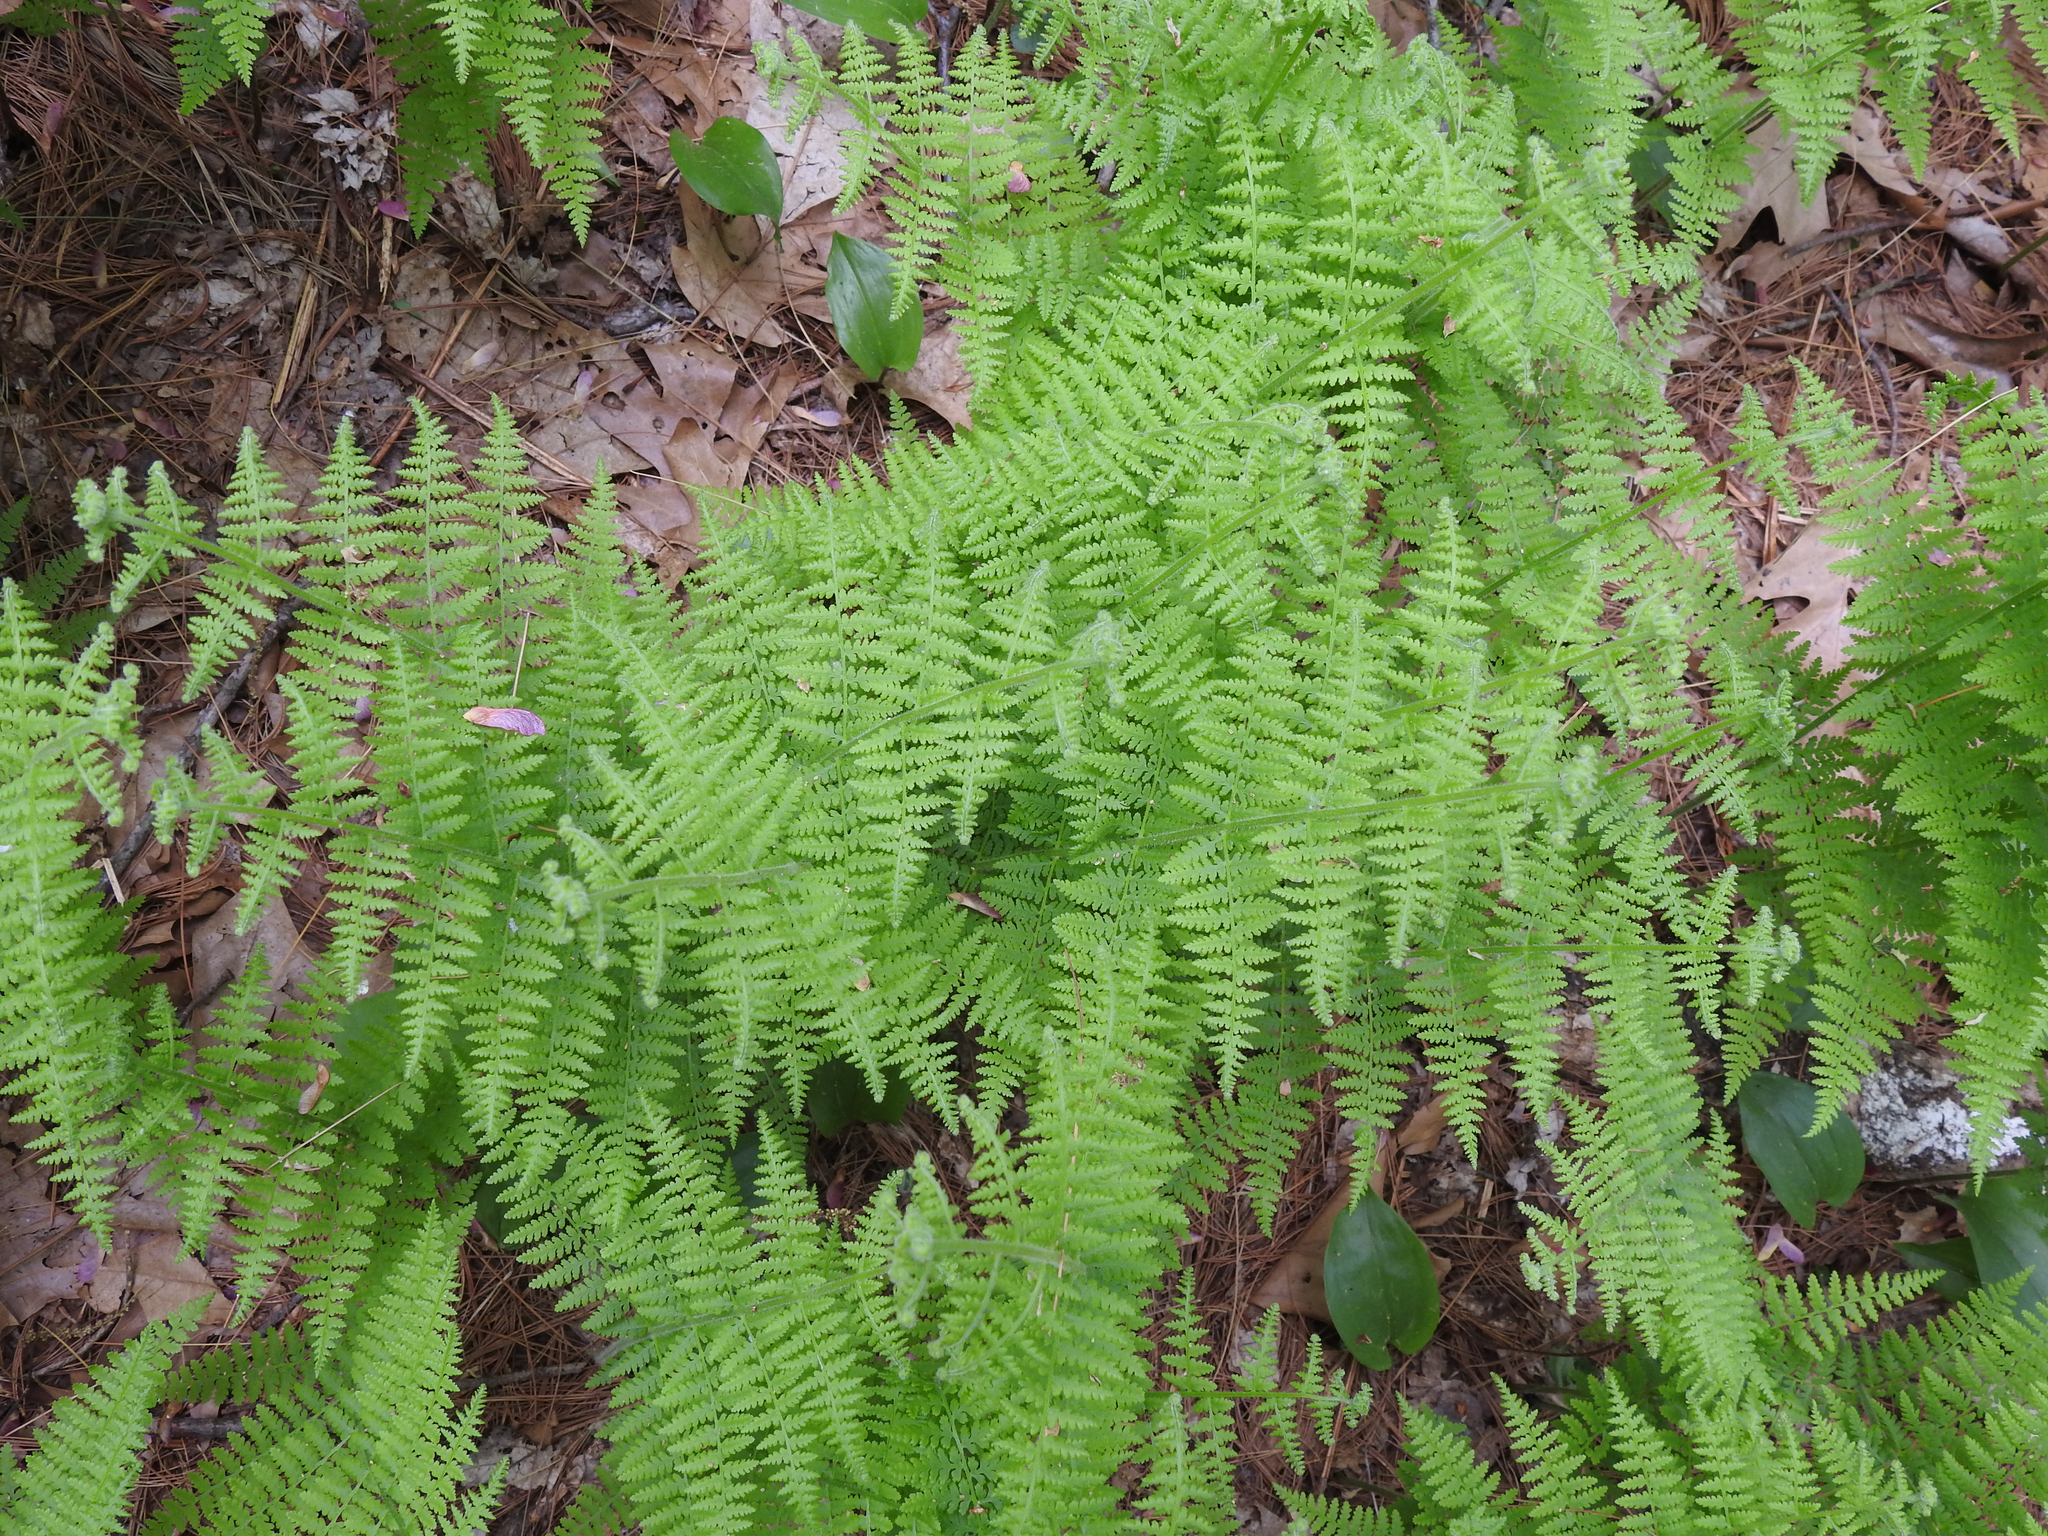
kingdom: Plantae
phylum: Tracheophyta
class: Polypodiopsida
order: Polypodiales
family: Dennstaedtiaceae
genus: Sitobolium
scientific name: Sitobolium punctilobum
